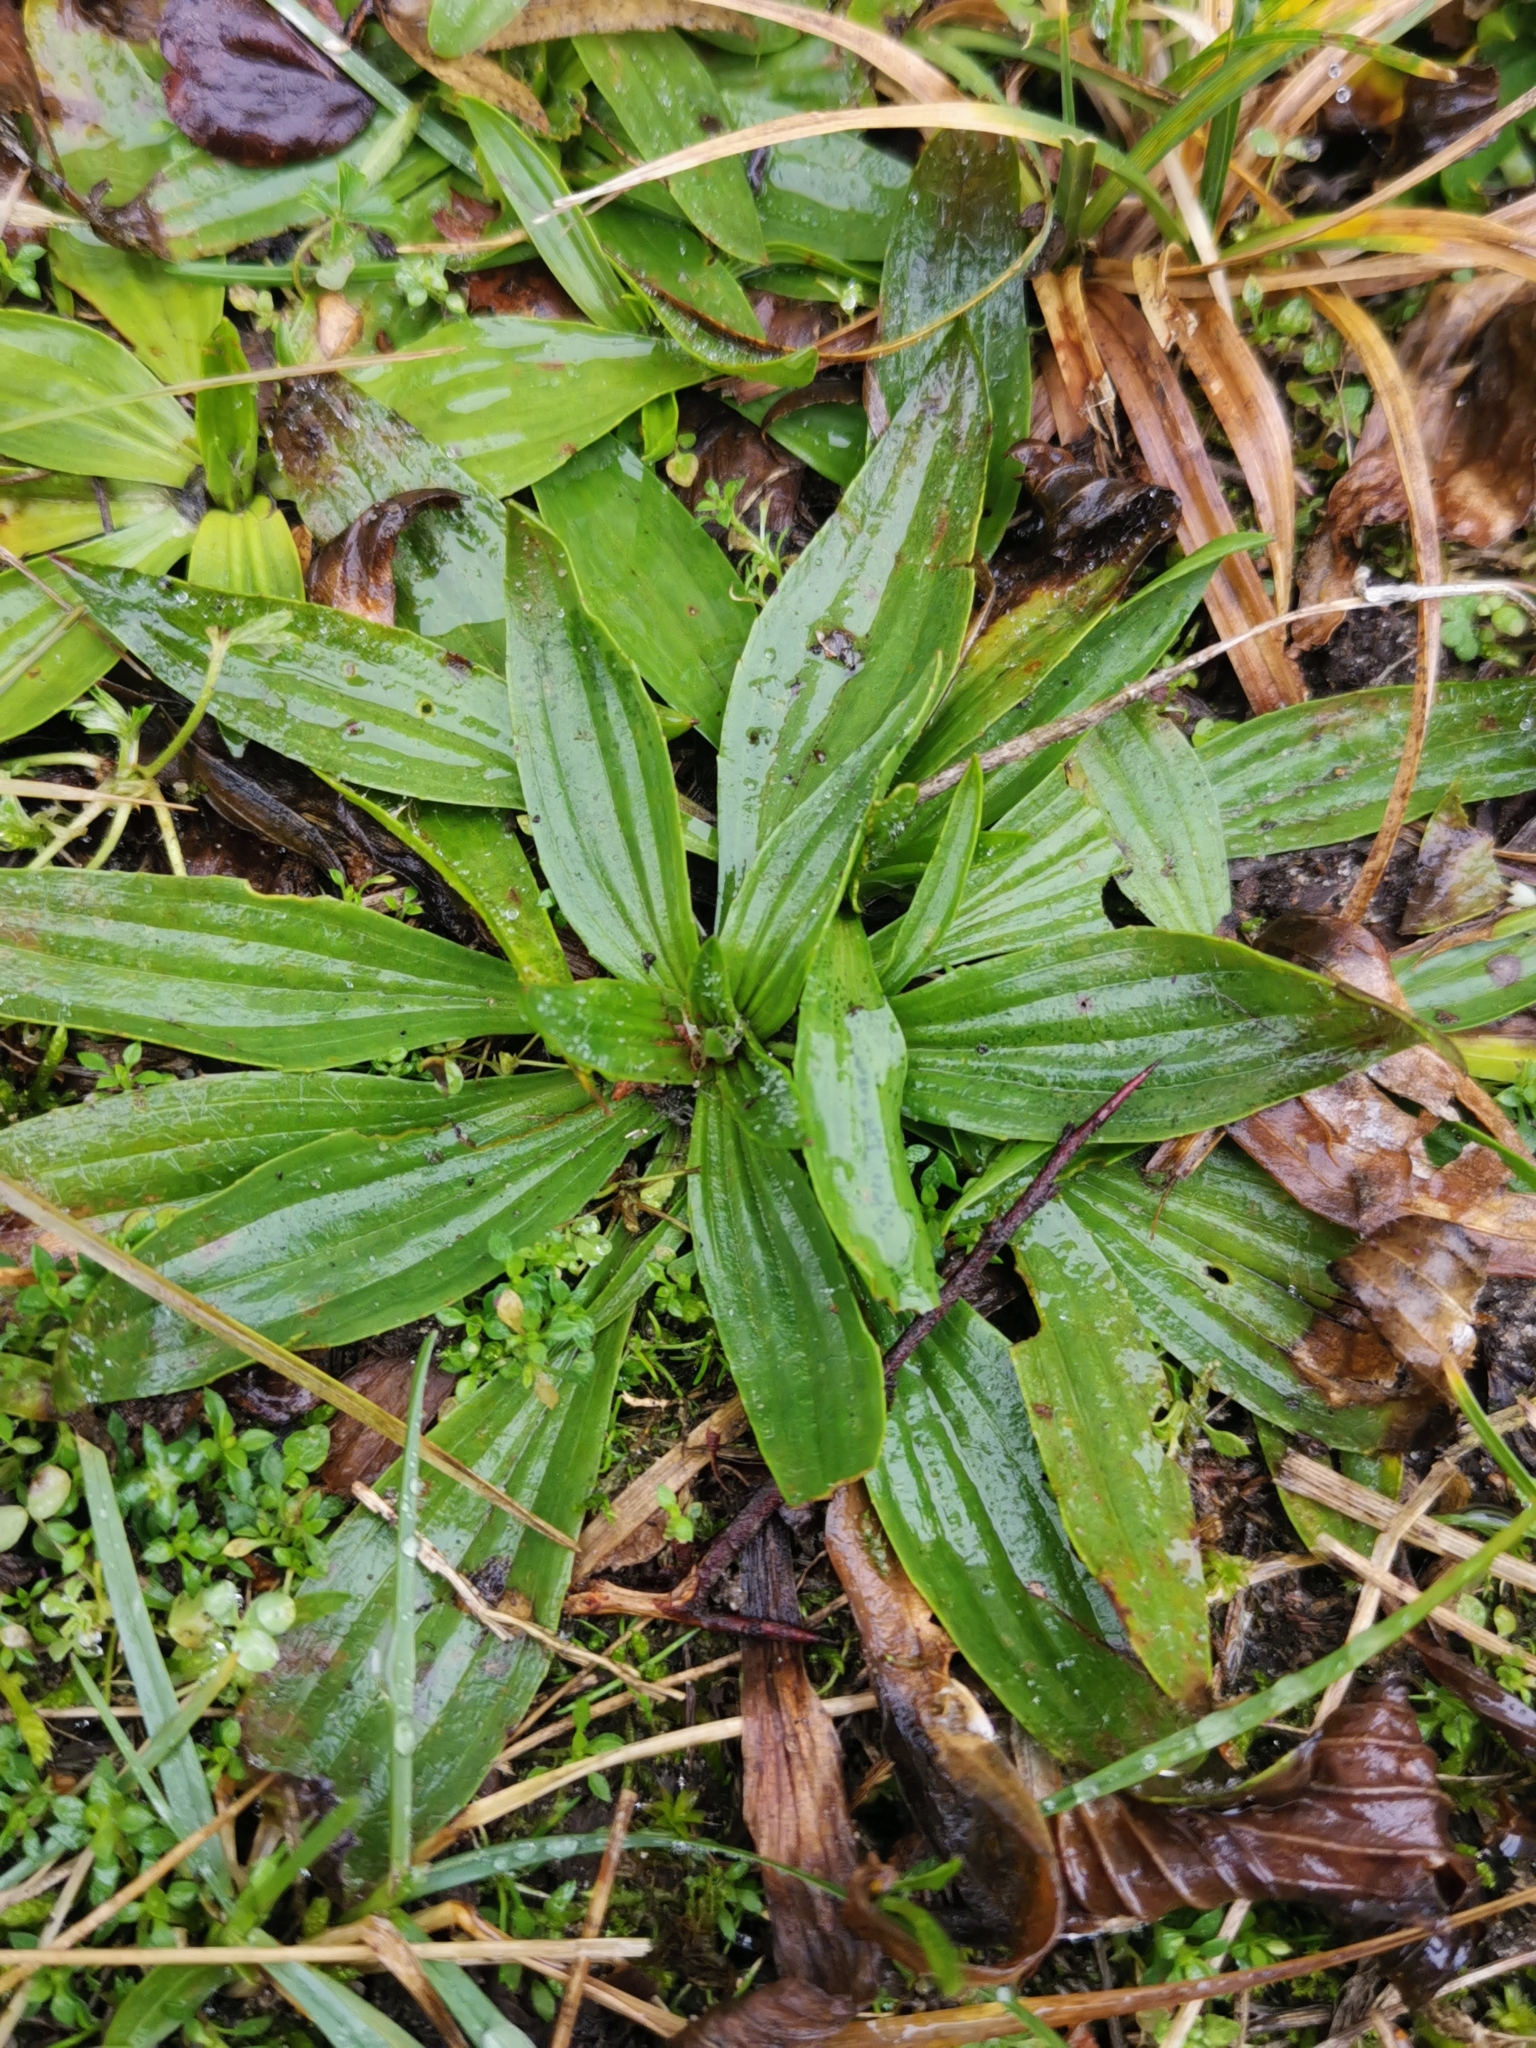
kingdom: Plantae
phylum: Tracheophyta
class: Magnoliopsida
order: Lamiales
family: Plantaginaceae
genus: Plantago
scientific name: Plantago lanceolata
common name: Ribwort plantain
